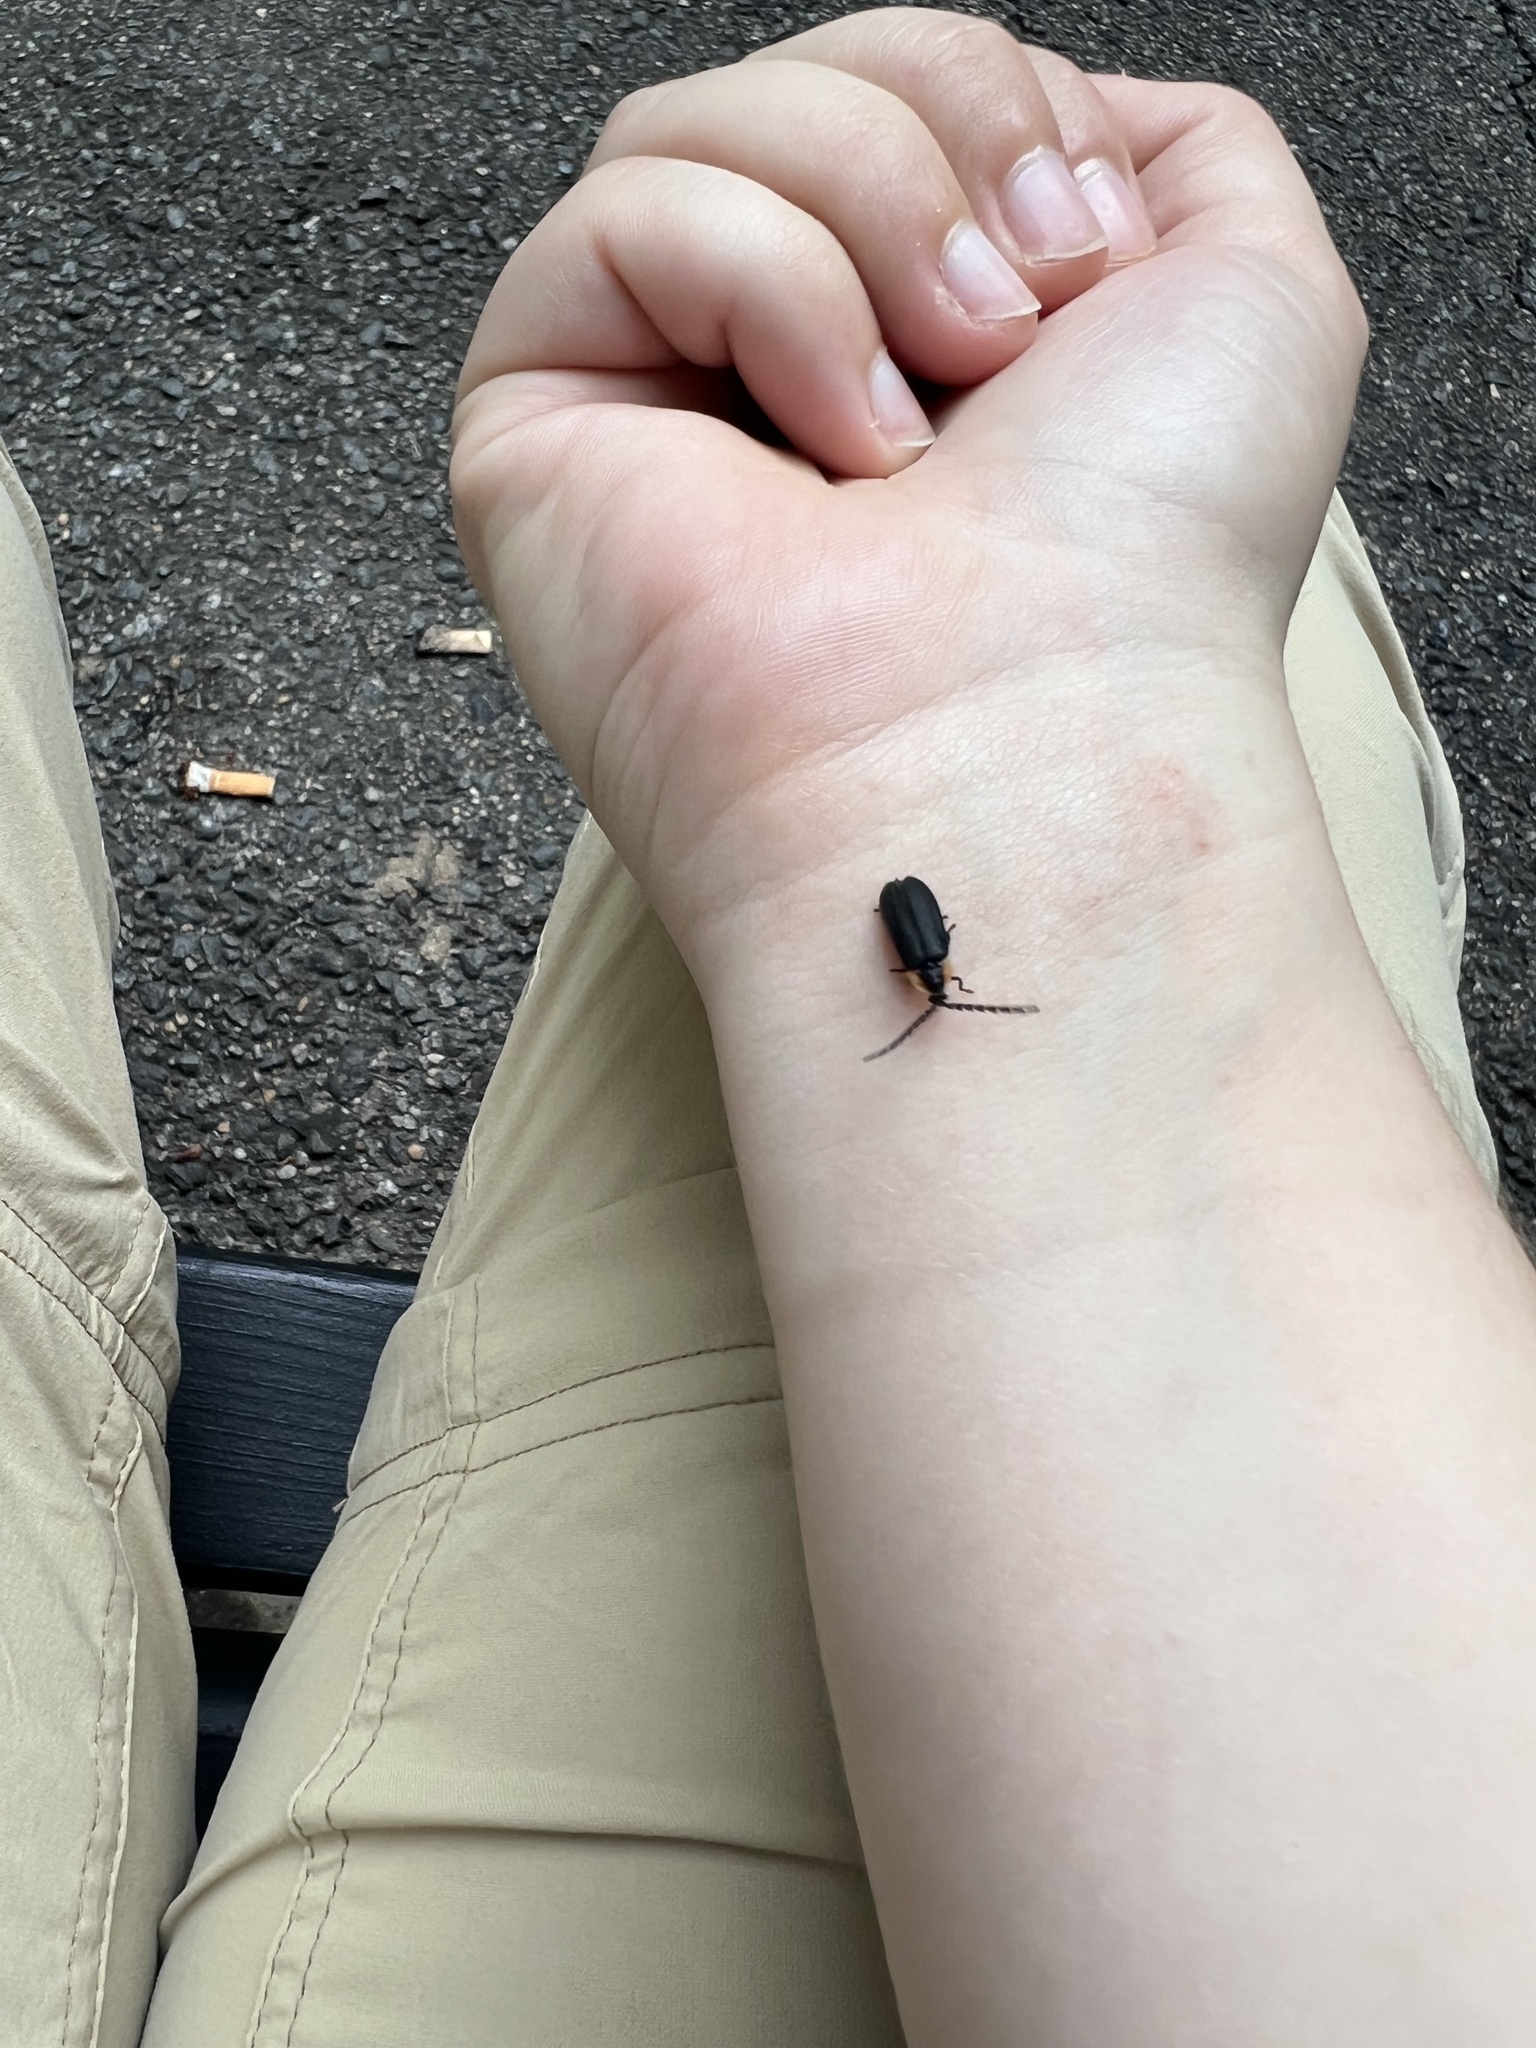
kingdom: Animalia
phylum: Arthropoda
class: Insecta
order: Coleoptera
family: Lampyridae
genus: Lucidota
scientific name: Lucidota atra
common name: Black firefly
